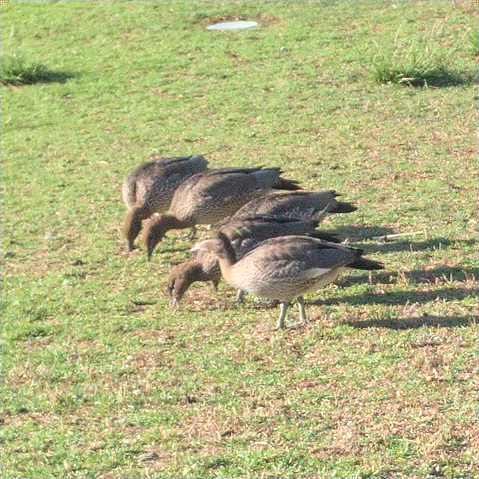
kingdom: Animalia
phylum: Chordata
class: Aves
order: Anseriformes
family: Anatidae
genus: Chenonetta
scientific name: Chenonetta jubata
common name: Maned duck
